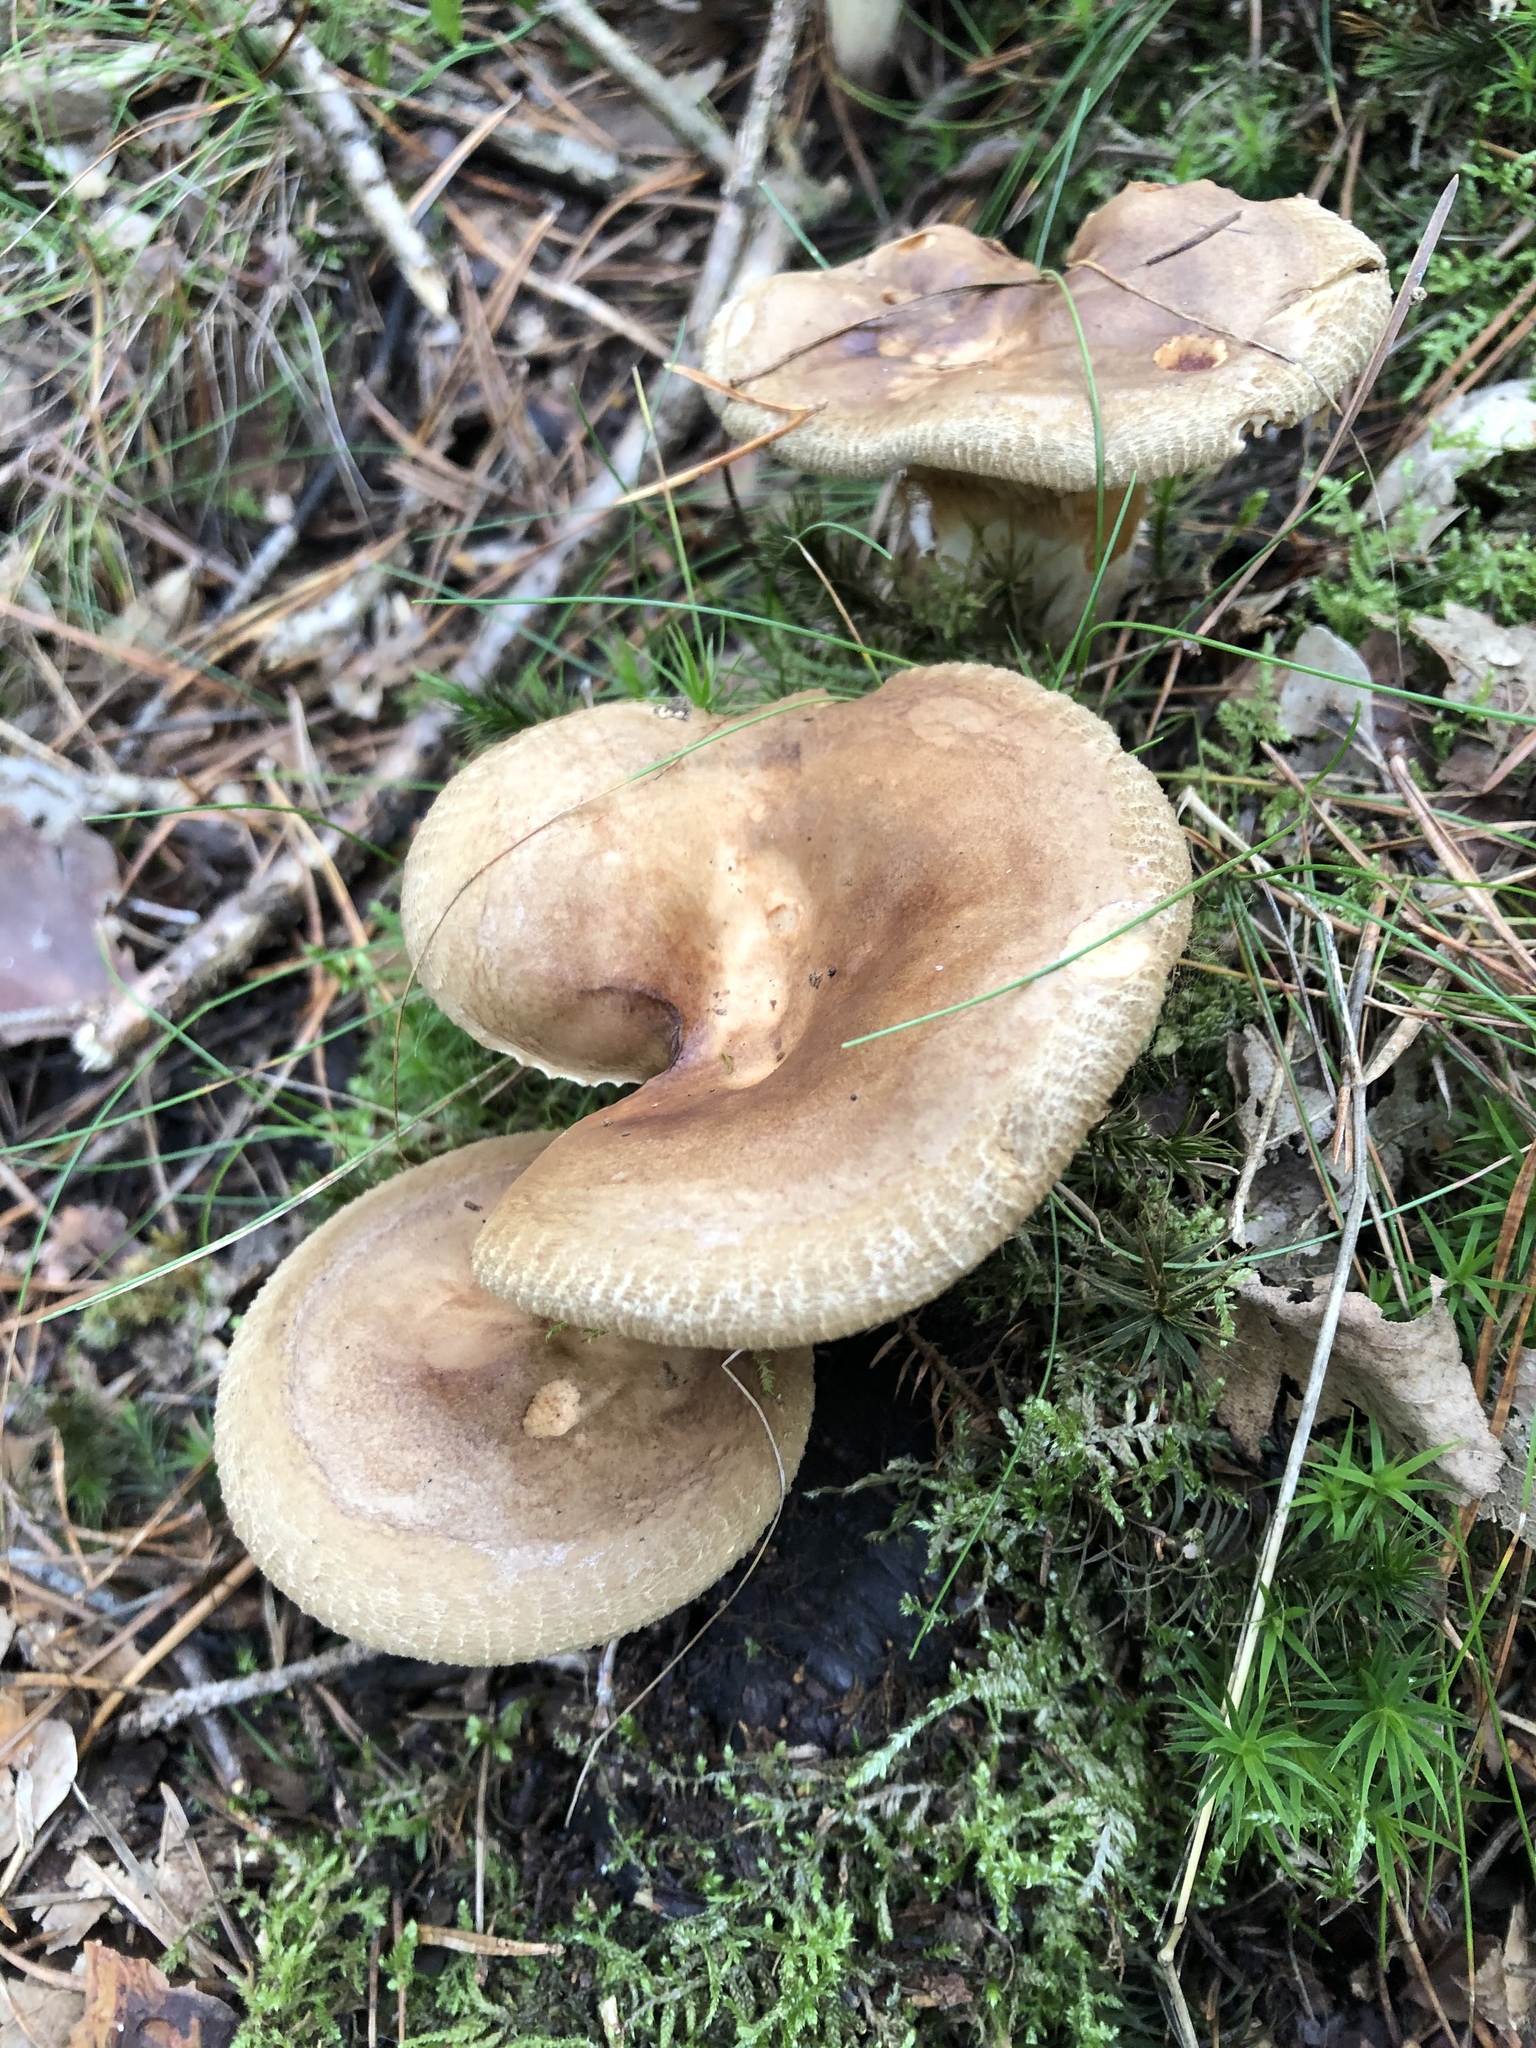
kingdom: Fungi
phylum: Basidiomycota
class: Agaricomycetes
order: Boletales
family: Paxillaceae
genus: Paxillus
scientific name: Paxillus involutus
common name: Brown roll rim
